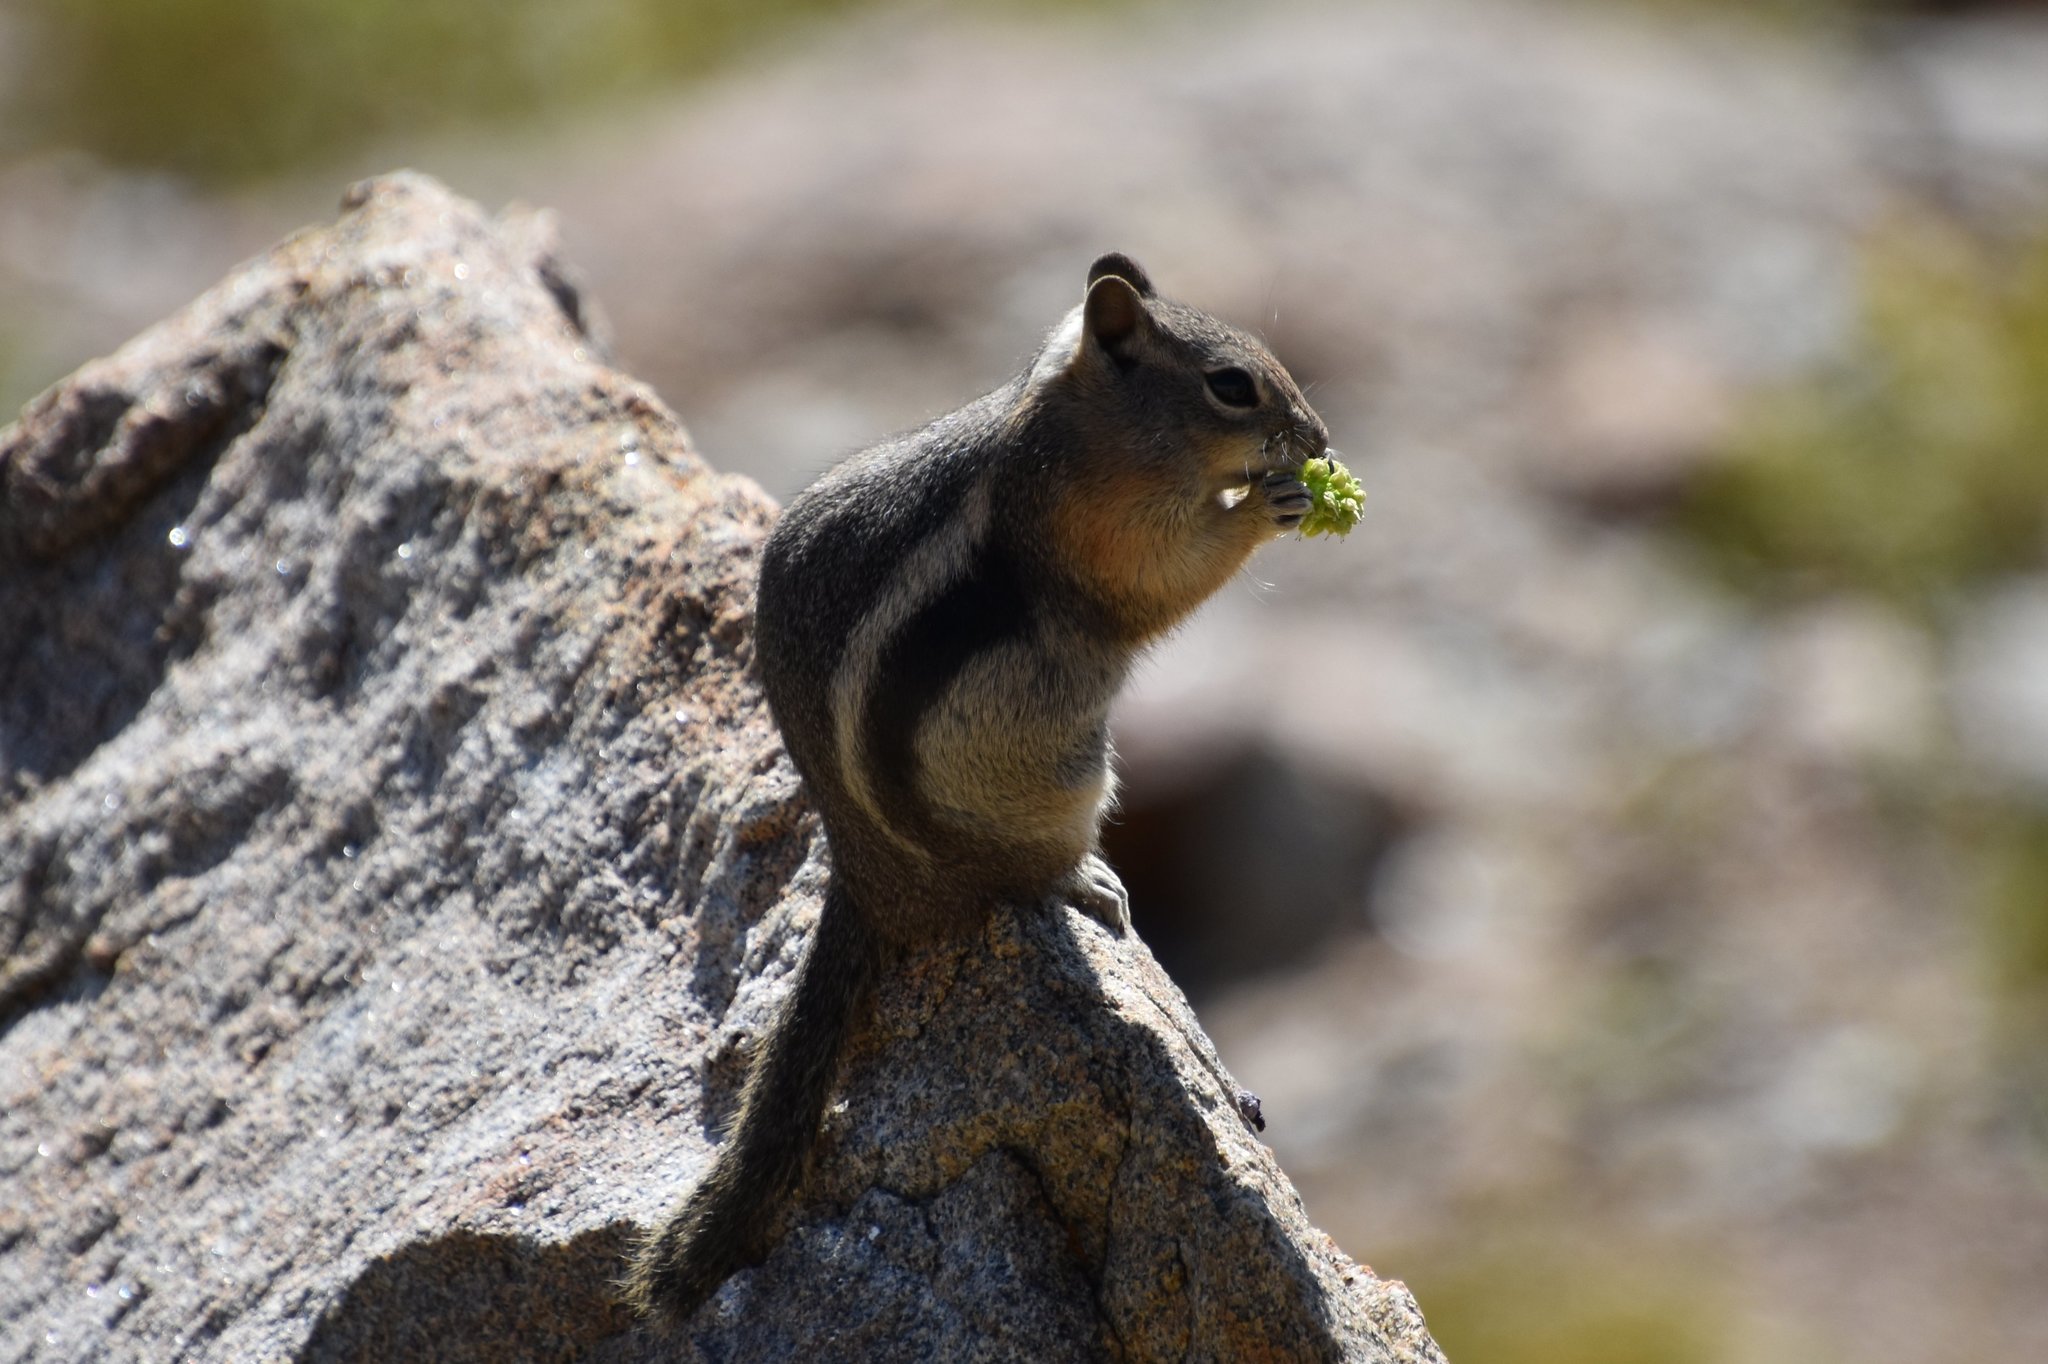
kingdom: Animalia
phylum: Chordata
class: Mammalia
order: Rodentia
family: Sciuridae
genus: Callospermophilus
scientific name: Callospermophilus lateralis
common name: Golden-mantled ground squirrel
